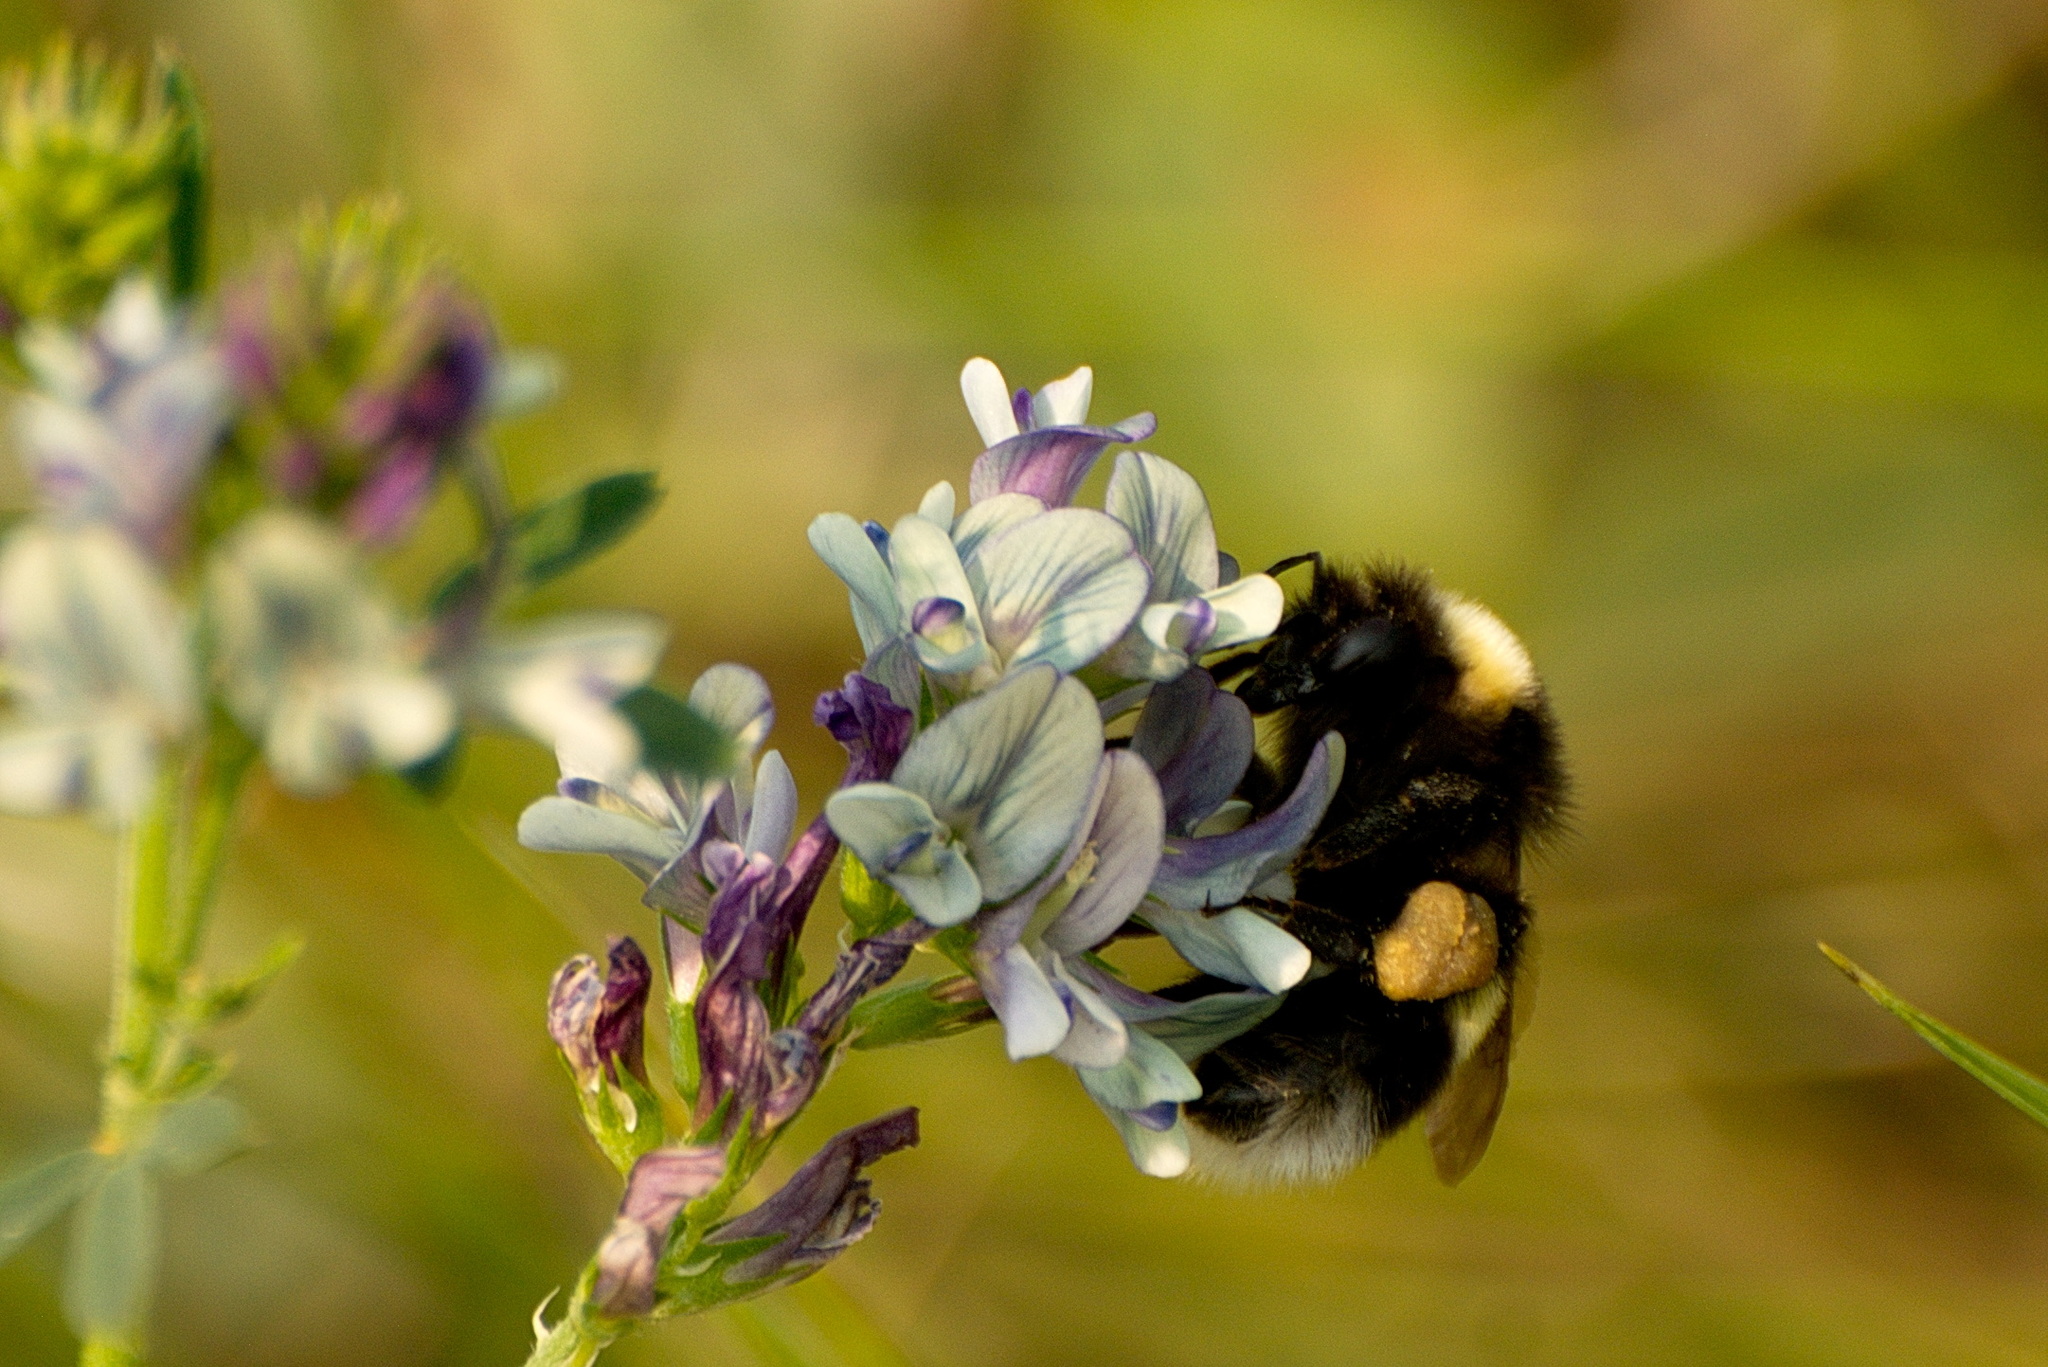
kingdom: Animalia
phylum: Arthropoda
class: Insecta
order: Hymenoptera
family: Apidae
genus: Bombus
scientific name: Bombus cryptarum
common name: Cryptic bumblebee
